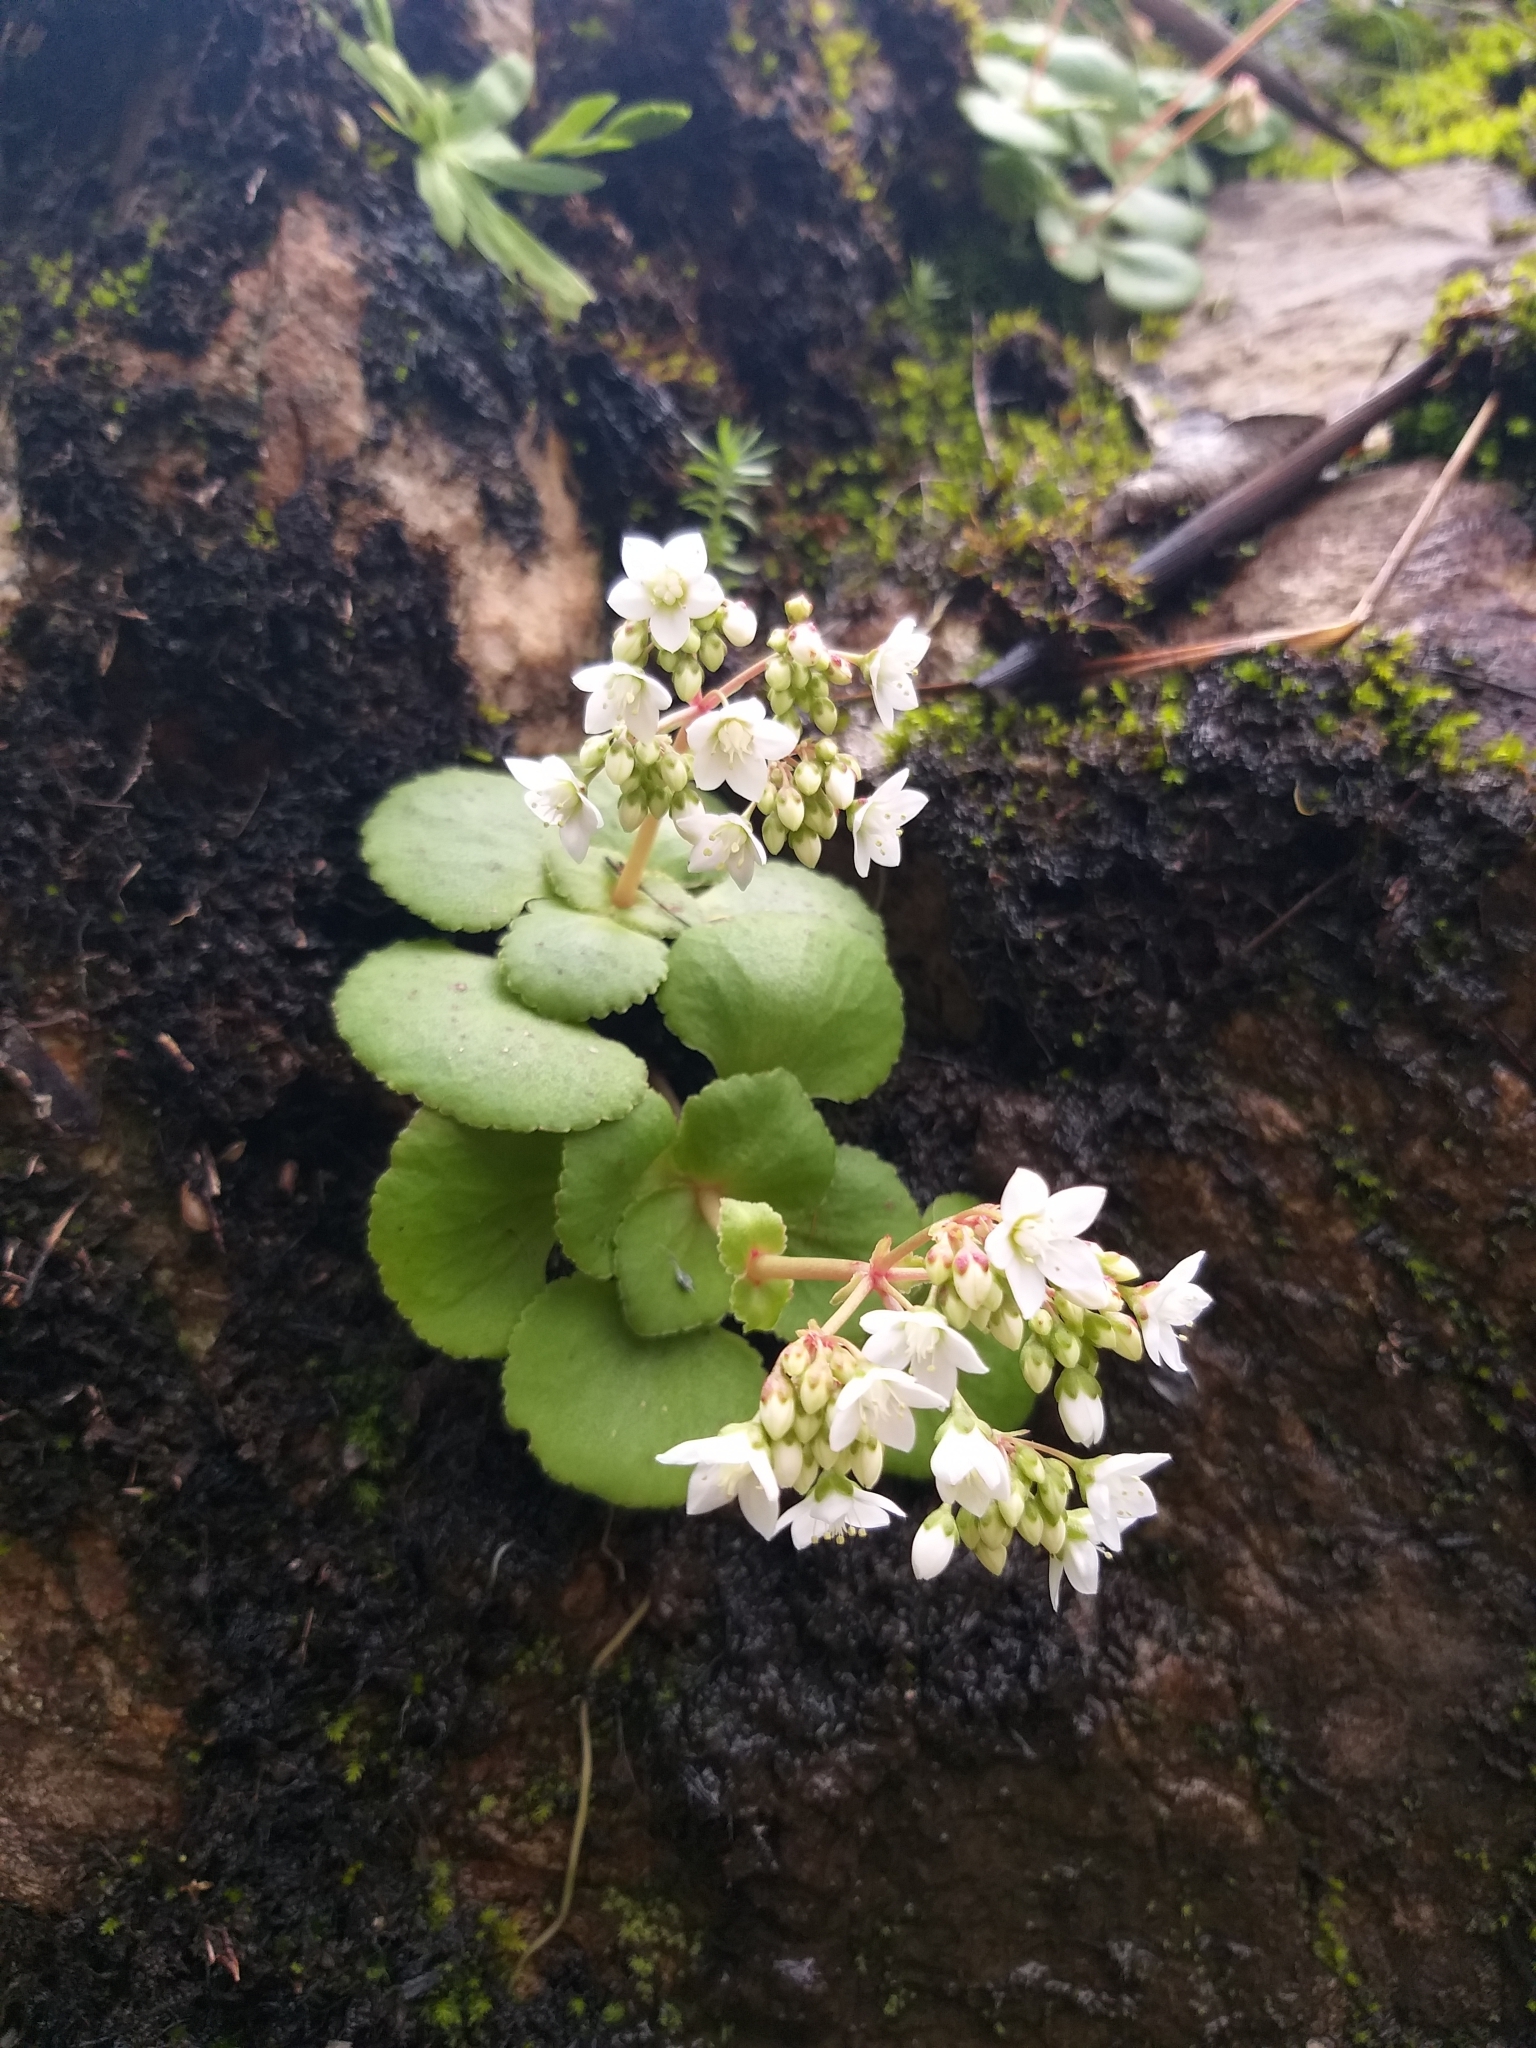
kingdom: Plantae
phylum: Tracheophyta
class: Magnoliopsida
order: Saxifragales
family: Crassulaceae
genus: Crassula
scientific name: Crassula capensis
